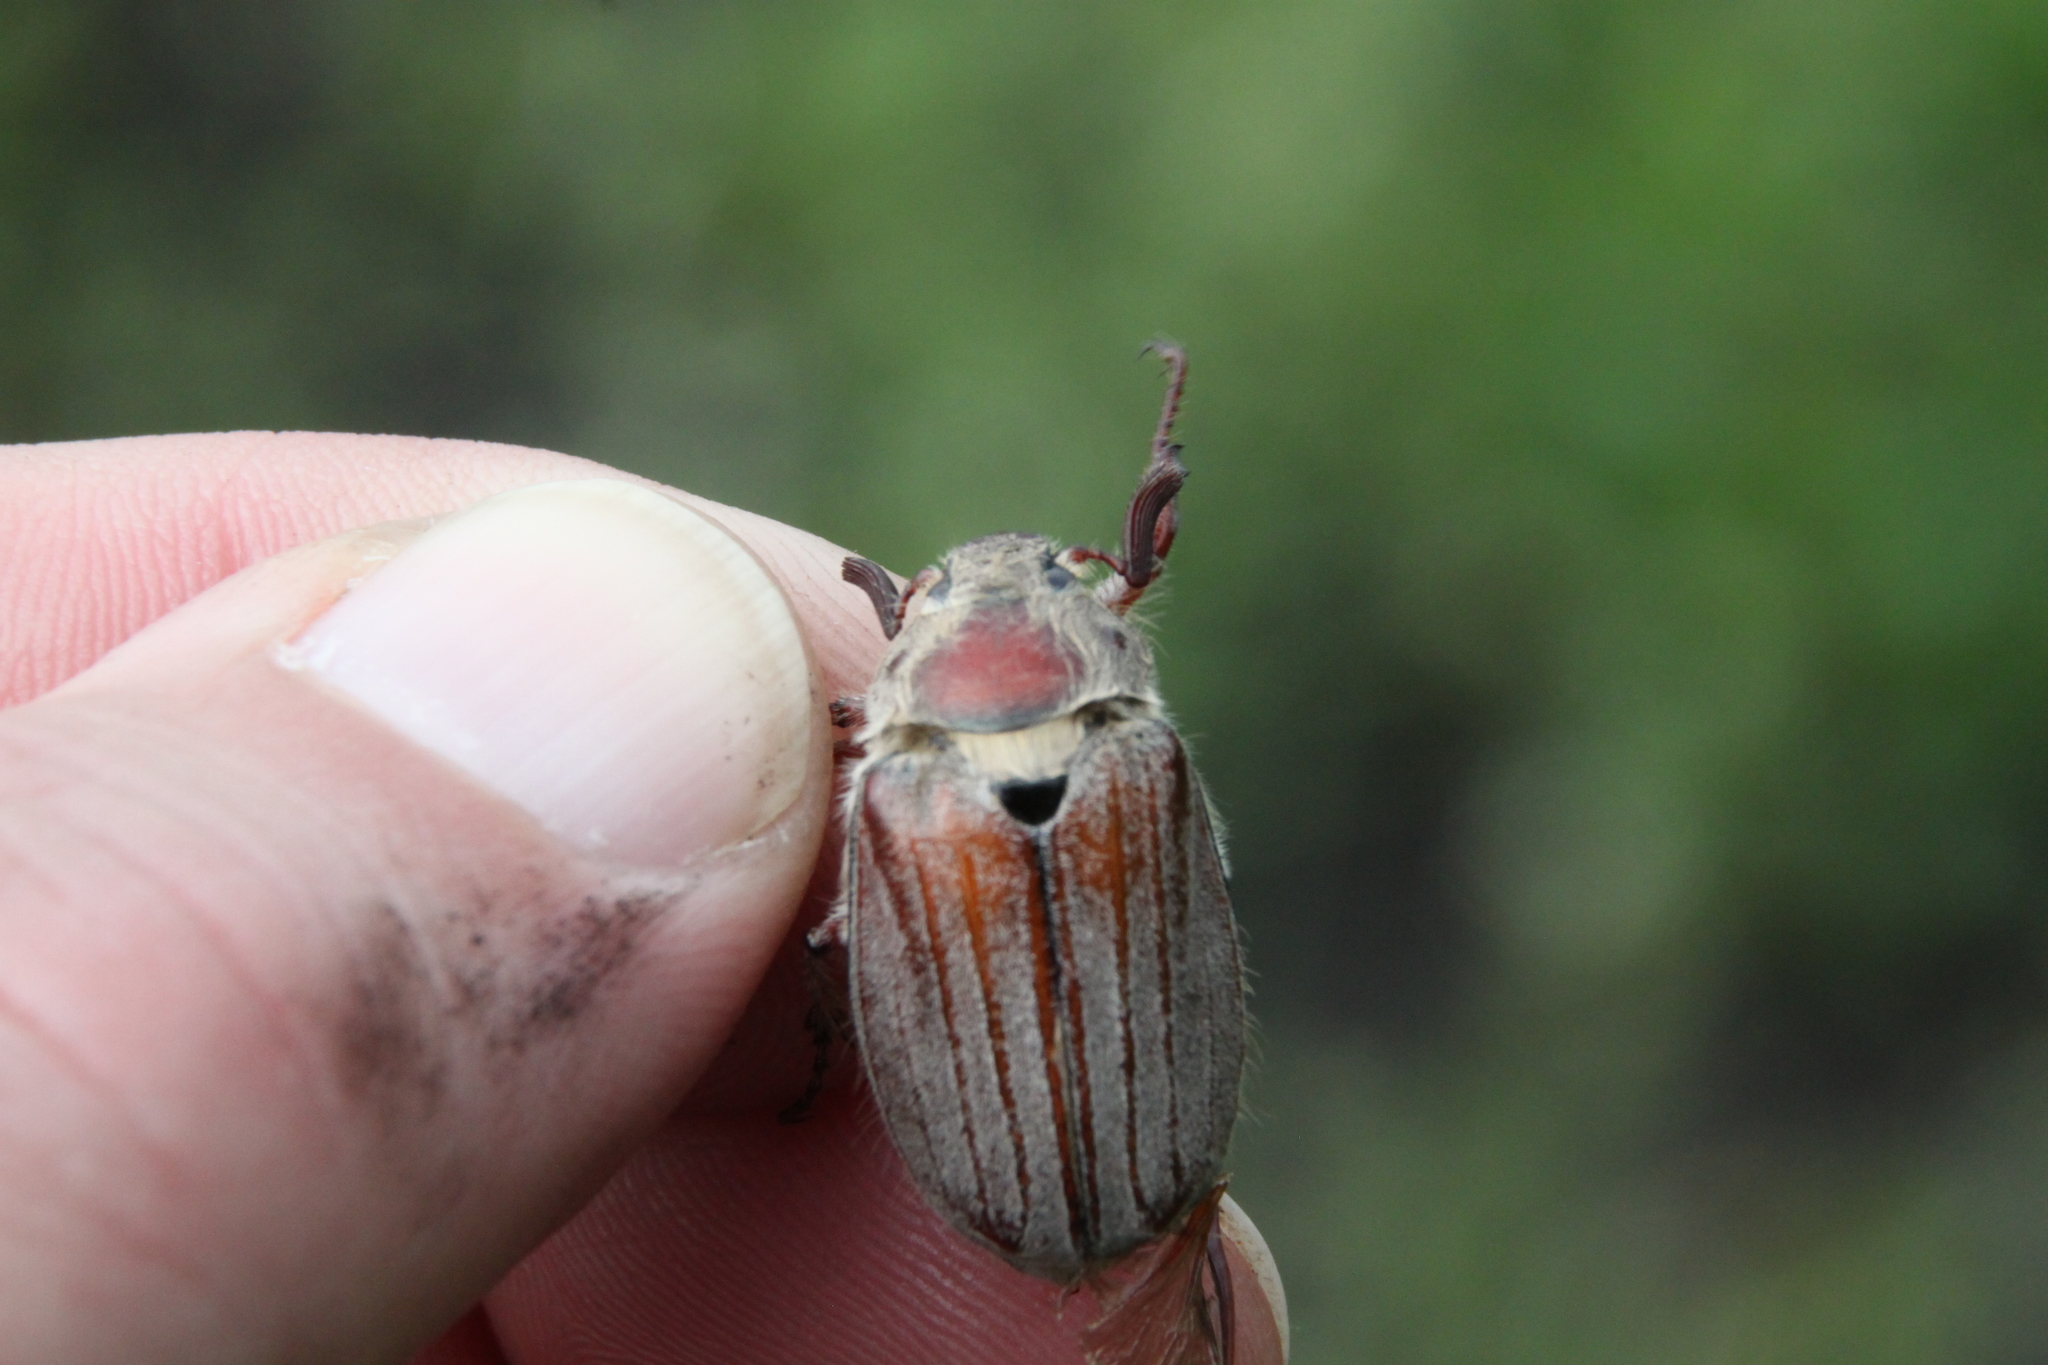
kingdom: Animalia
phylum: Arthropoda
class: Insecta
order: Coleoptera
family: Scarabaeidae
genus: Melolontha
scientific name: Melolontha hippocastani
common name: Chestnut cockchafer
